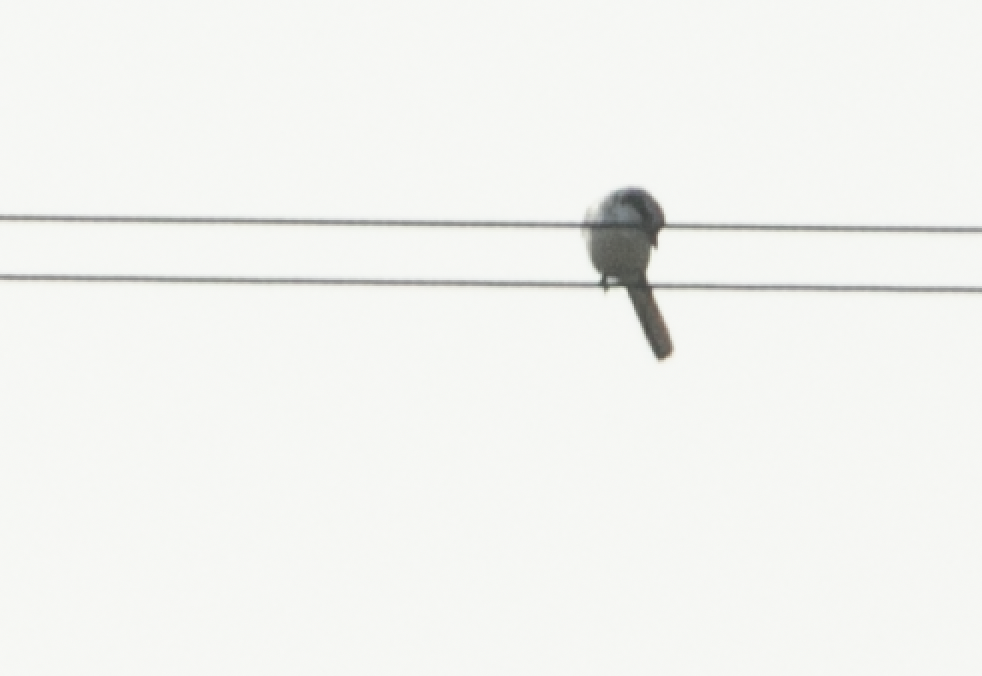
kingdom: Animalia
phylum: Chordata
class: Aves
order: Passeriformes
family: Laniidae
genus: Lanius
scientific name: Lanius excubitor
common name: Great grey shrike
